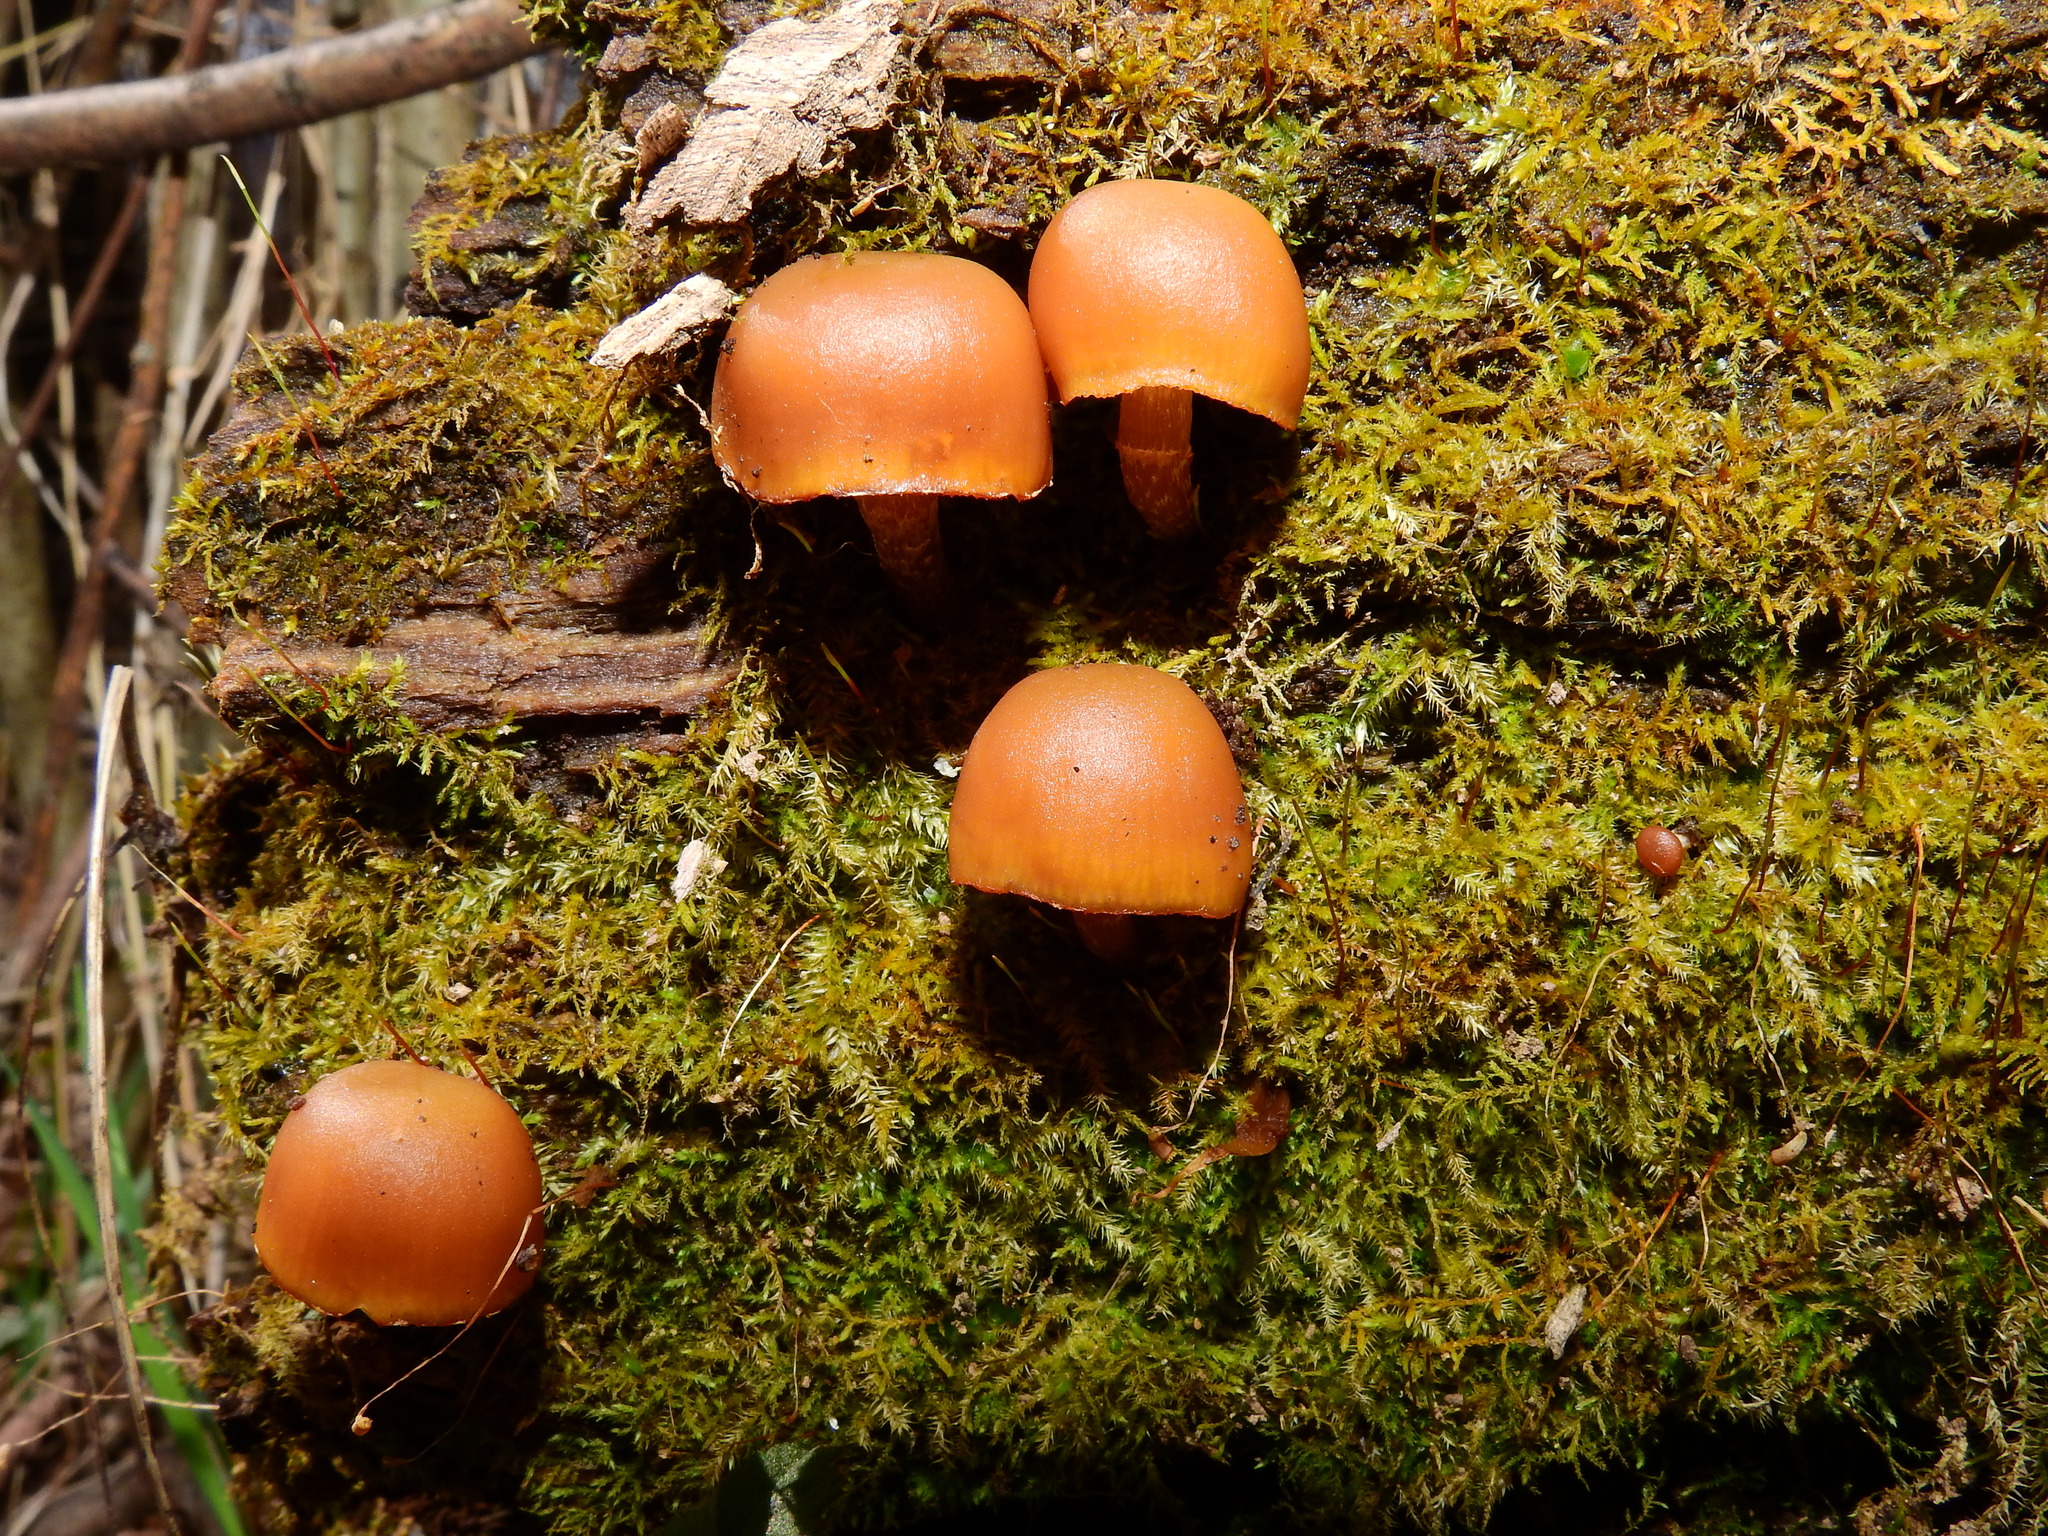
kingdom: Fungi
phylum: Basidiomycota
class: Agaricomycetes
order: Agaricales
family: Hymenogastraceae
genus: Galerina
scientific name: Galerina marginata
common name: Funeral bell
